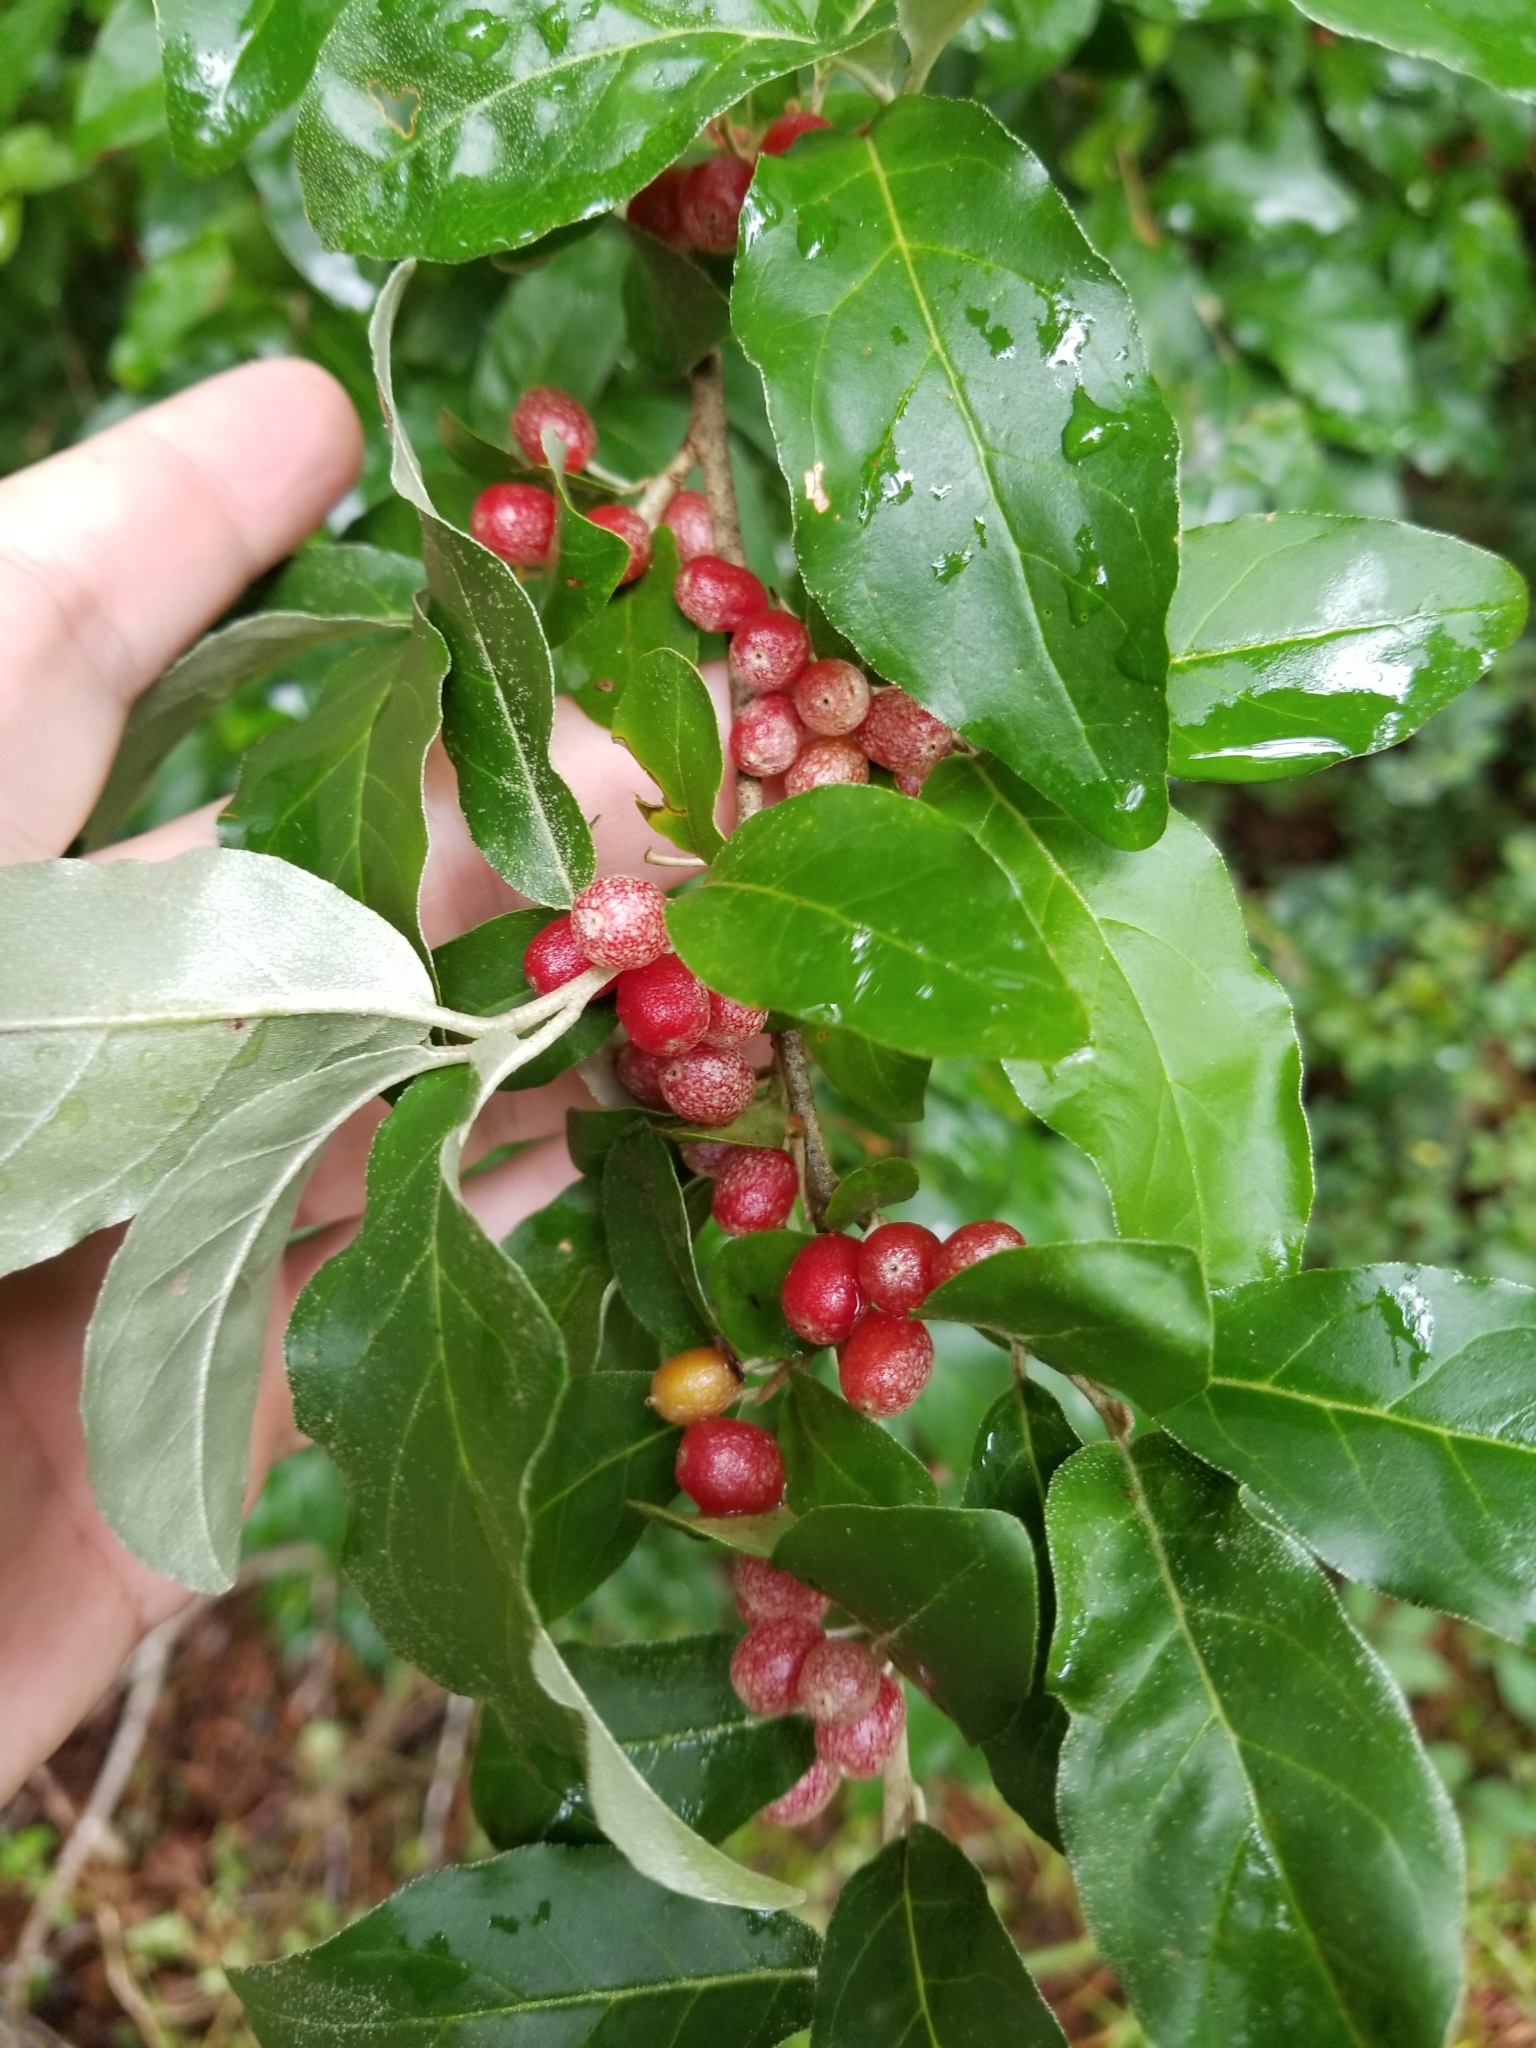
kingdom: Plantae
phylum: Tracheophyta
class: Magnoliopsida
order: Rosales
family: Elaeagnaceae
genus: Elaeagnus
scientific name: Elaeagnus umbellata
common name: Autumn olive
